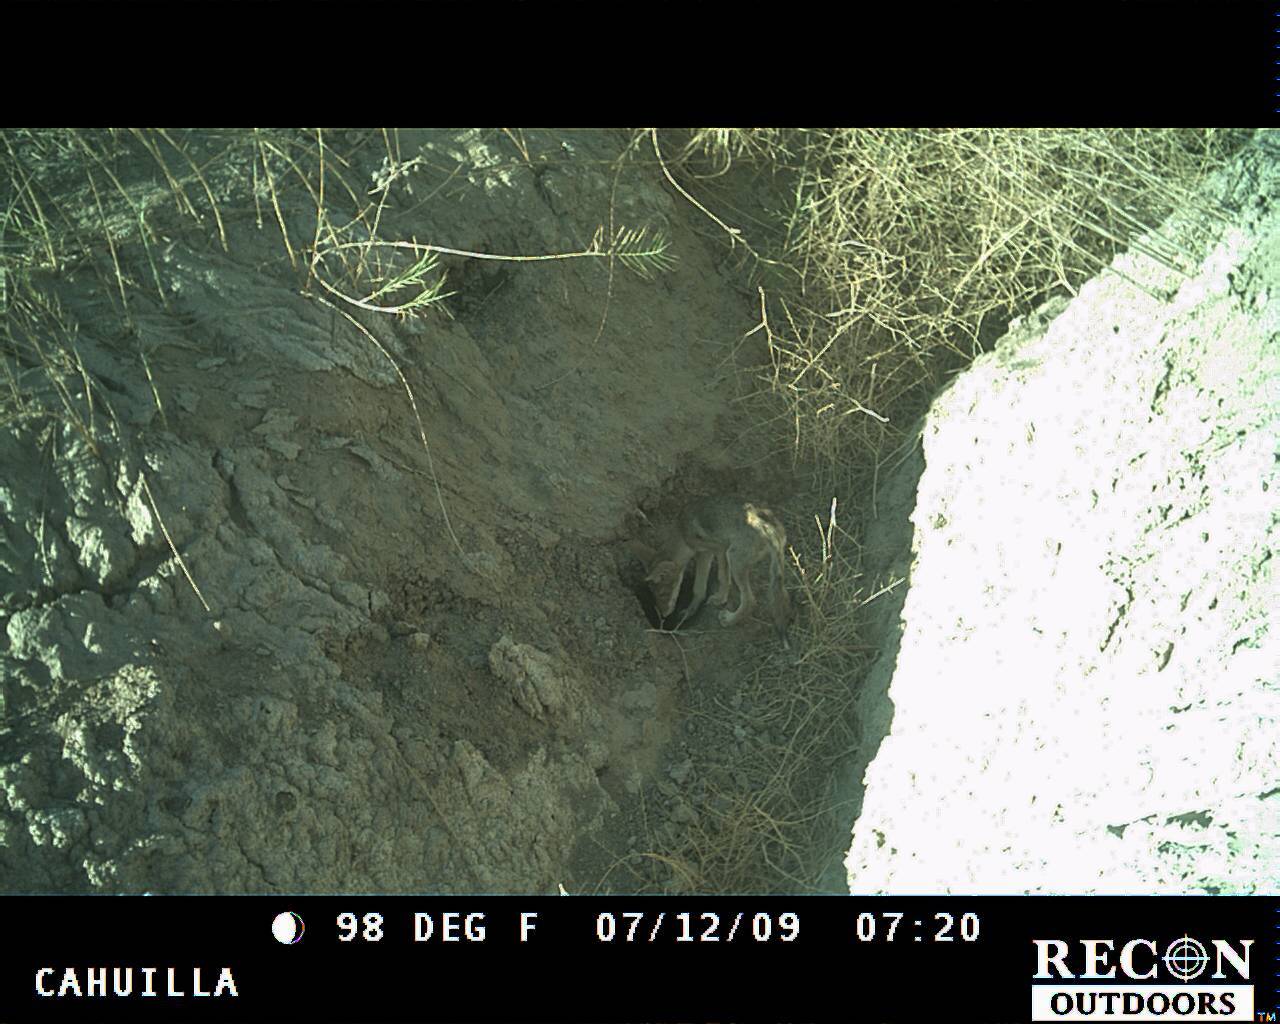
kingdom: Animalia
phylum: Chordata
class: Mammalia
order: Carnivora
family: Canidae
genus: Canis
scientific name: Canis latrans
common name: Coyote
